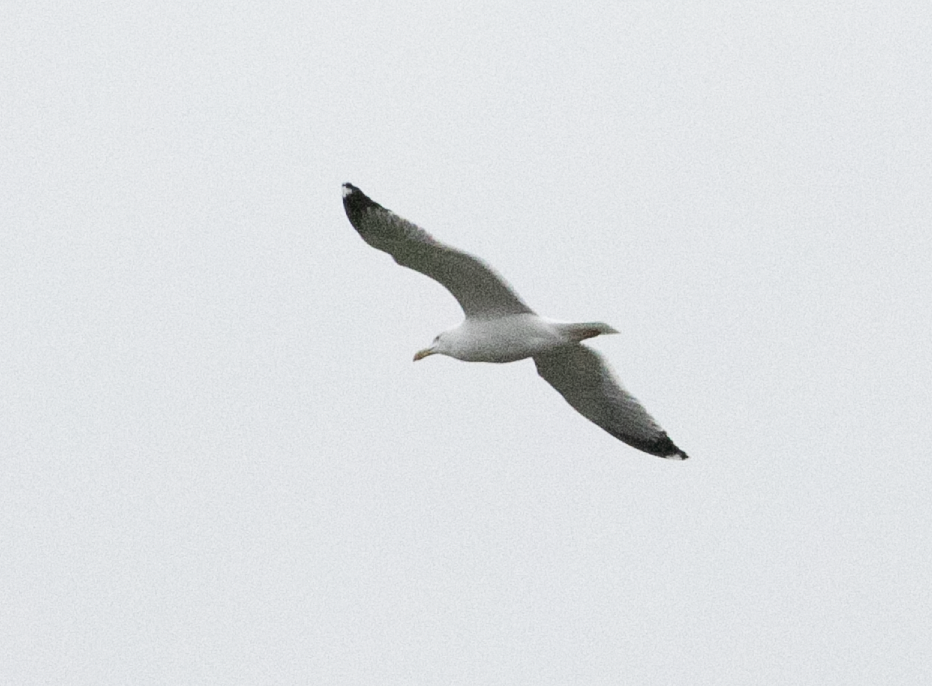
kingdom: Animalia
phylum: Chordata
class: Aves
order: Charadriiformes
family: Laridae
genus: Larus
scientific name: Larus michahellis
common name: Yellow-legged gull
